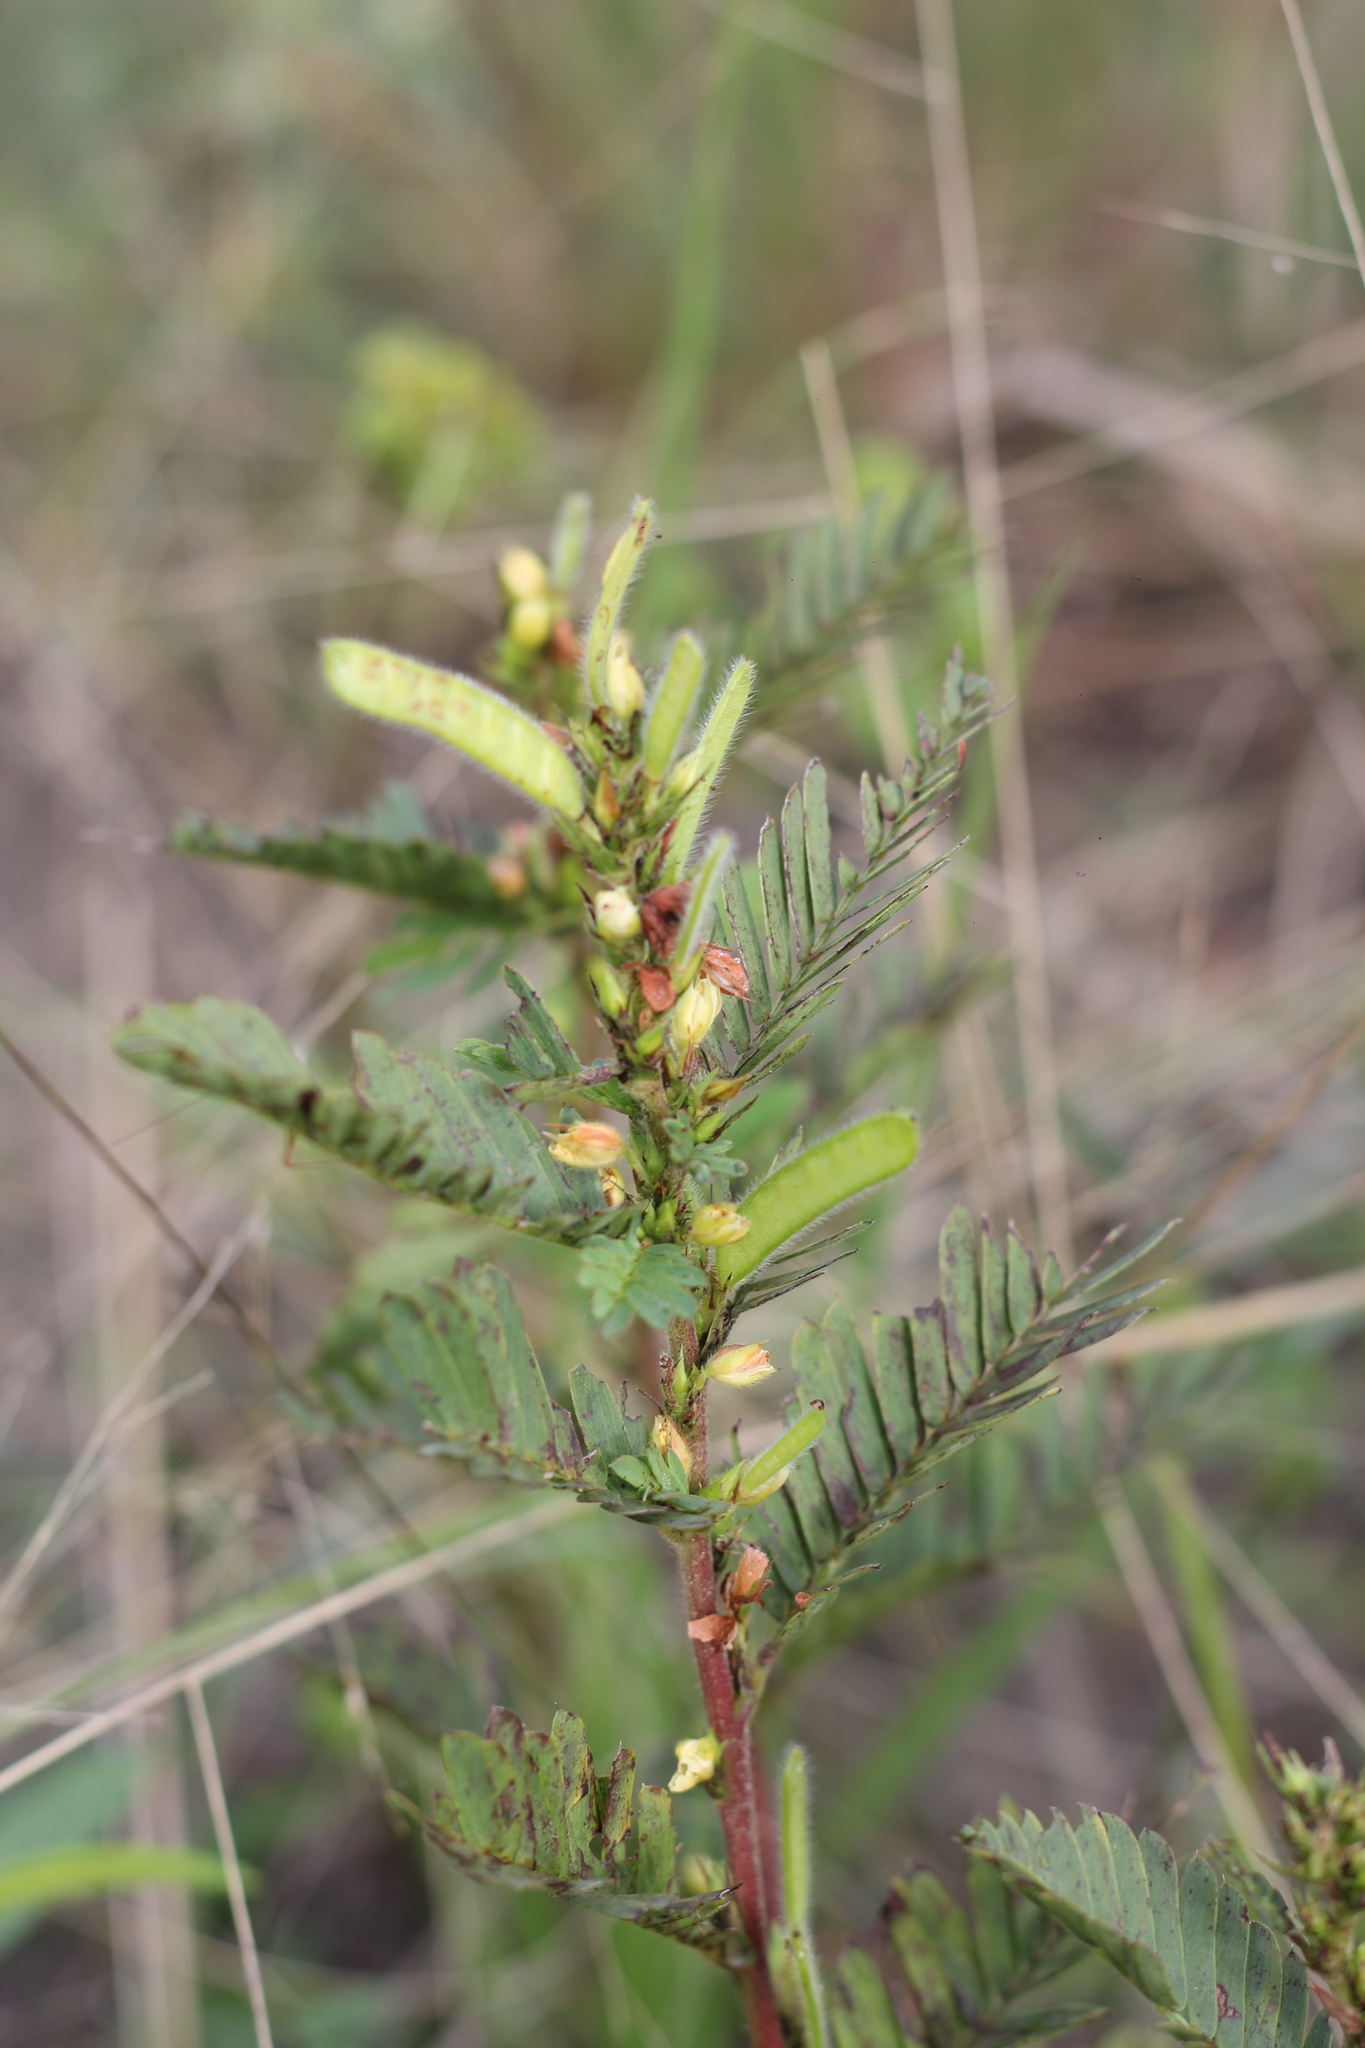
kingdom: Plantae
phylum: Tracheophyta
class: Magnoliopsida
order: Fabales
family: Fabaceae
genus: Chamaecrista
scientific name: Chamaecrista nictitans
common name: Sensitive cassia
